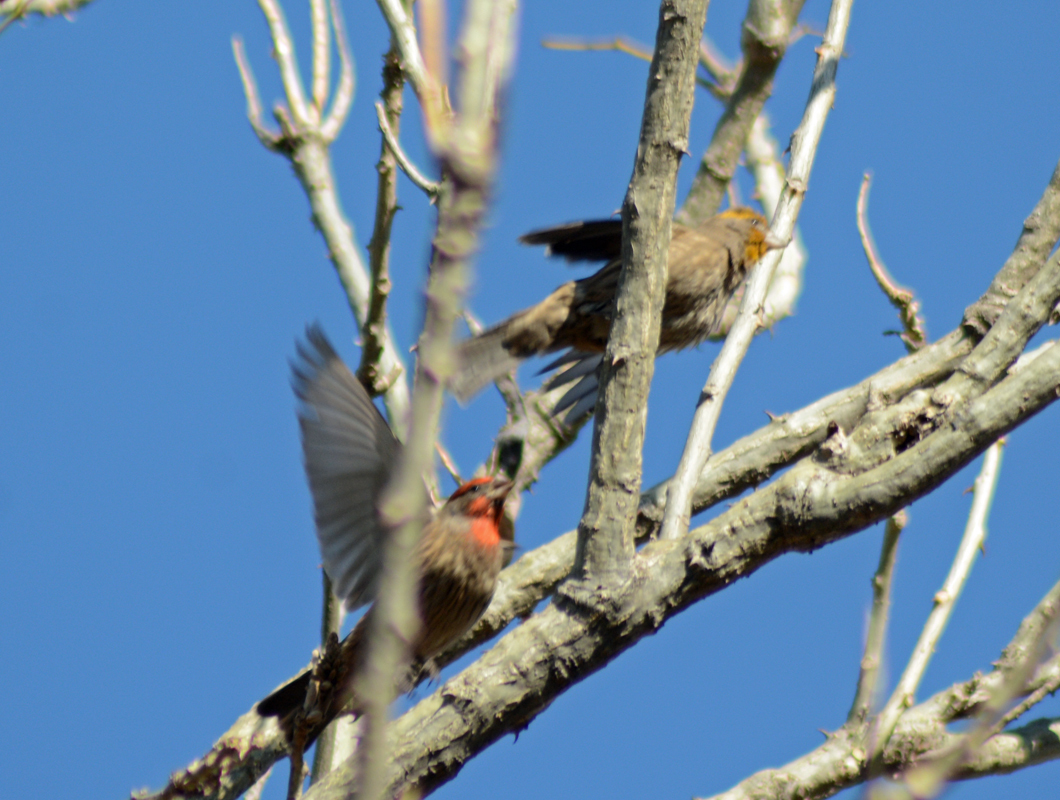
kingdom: Animalia
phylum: Chordata
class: Aves
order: Passeriformes
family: Fringillidae
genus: Haemorhous
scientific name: Haemorhous mexicanus
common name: House finch
